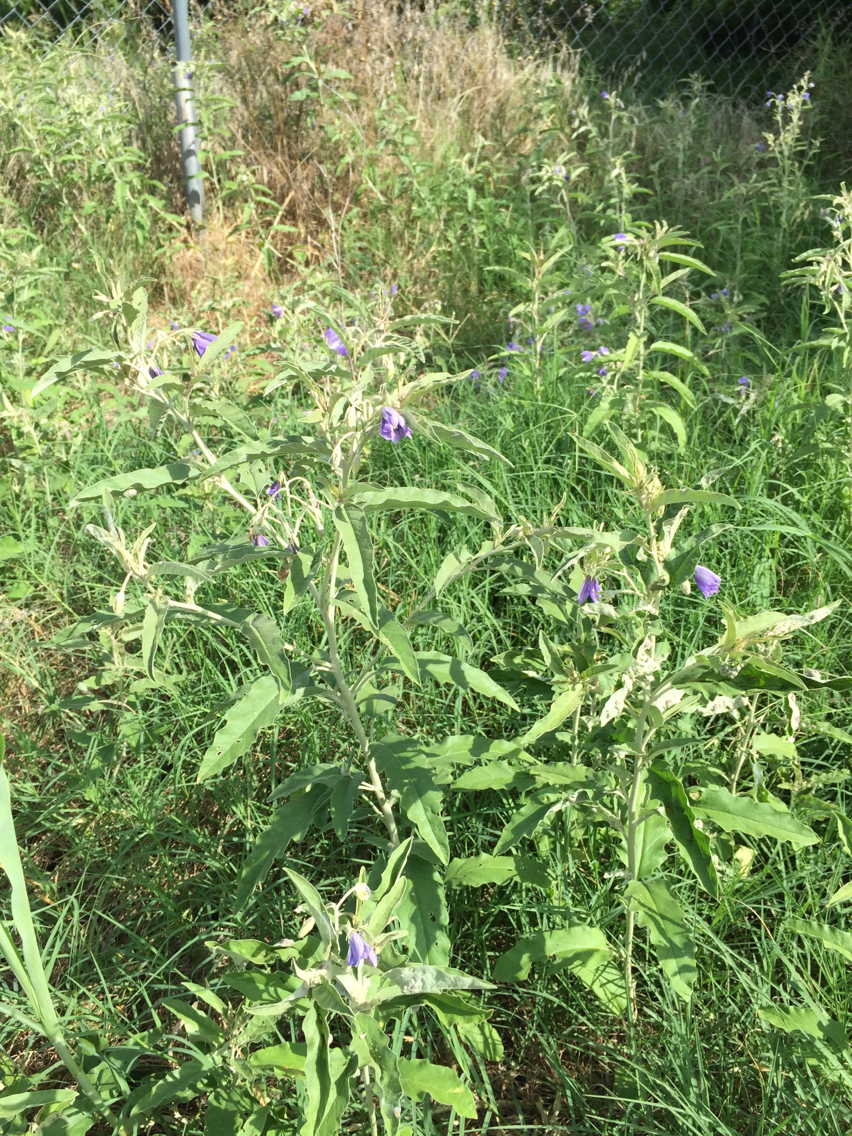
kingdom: Plantae
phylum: Tracheophyta
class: Magnoliopsida
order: Solanales
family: Solanaceae
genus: Solanum
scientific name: Solanum elaeagnifolium
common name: Silverleaf nightshade
